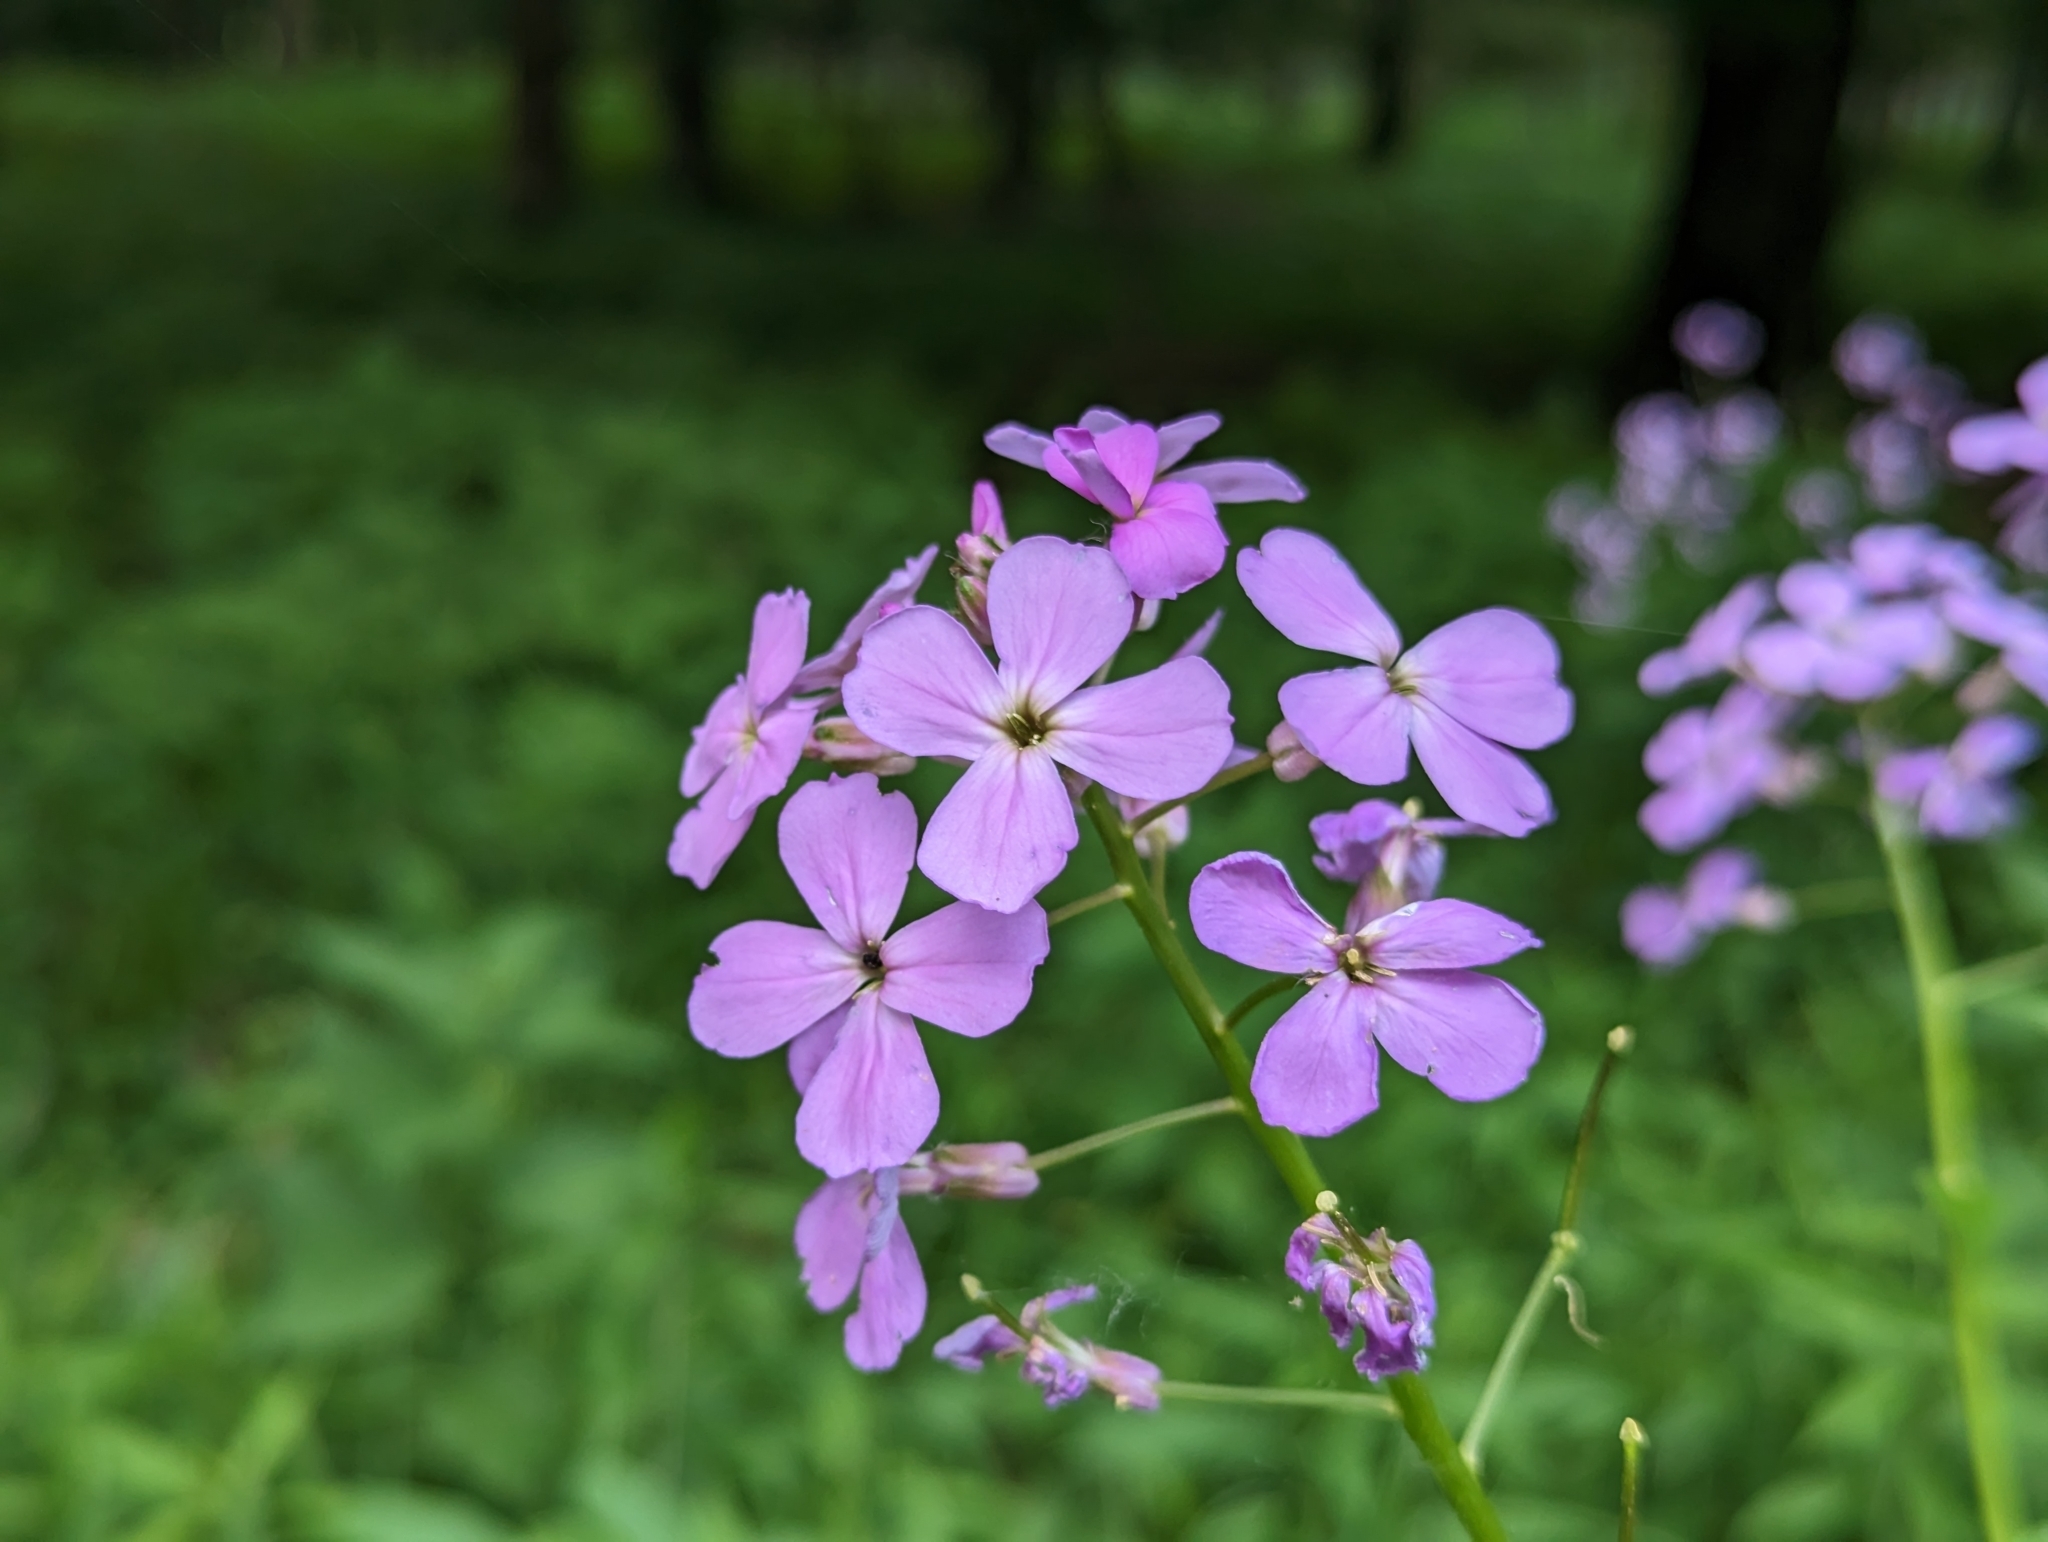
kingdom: Plantae
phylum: Tracheophyta
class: Magnoliopsida
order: Brassicales
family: Brassicaceae
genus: Hesperis
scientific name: Hesperis matronalis
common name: Dame's-violet
